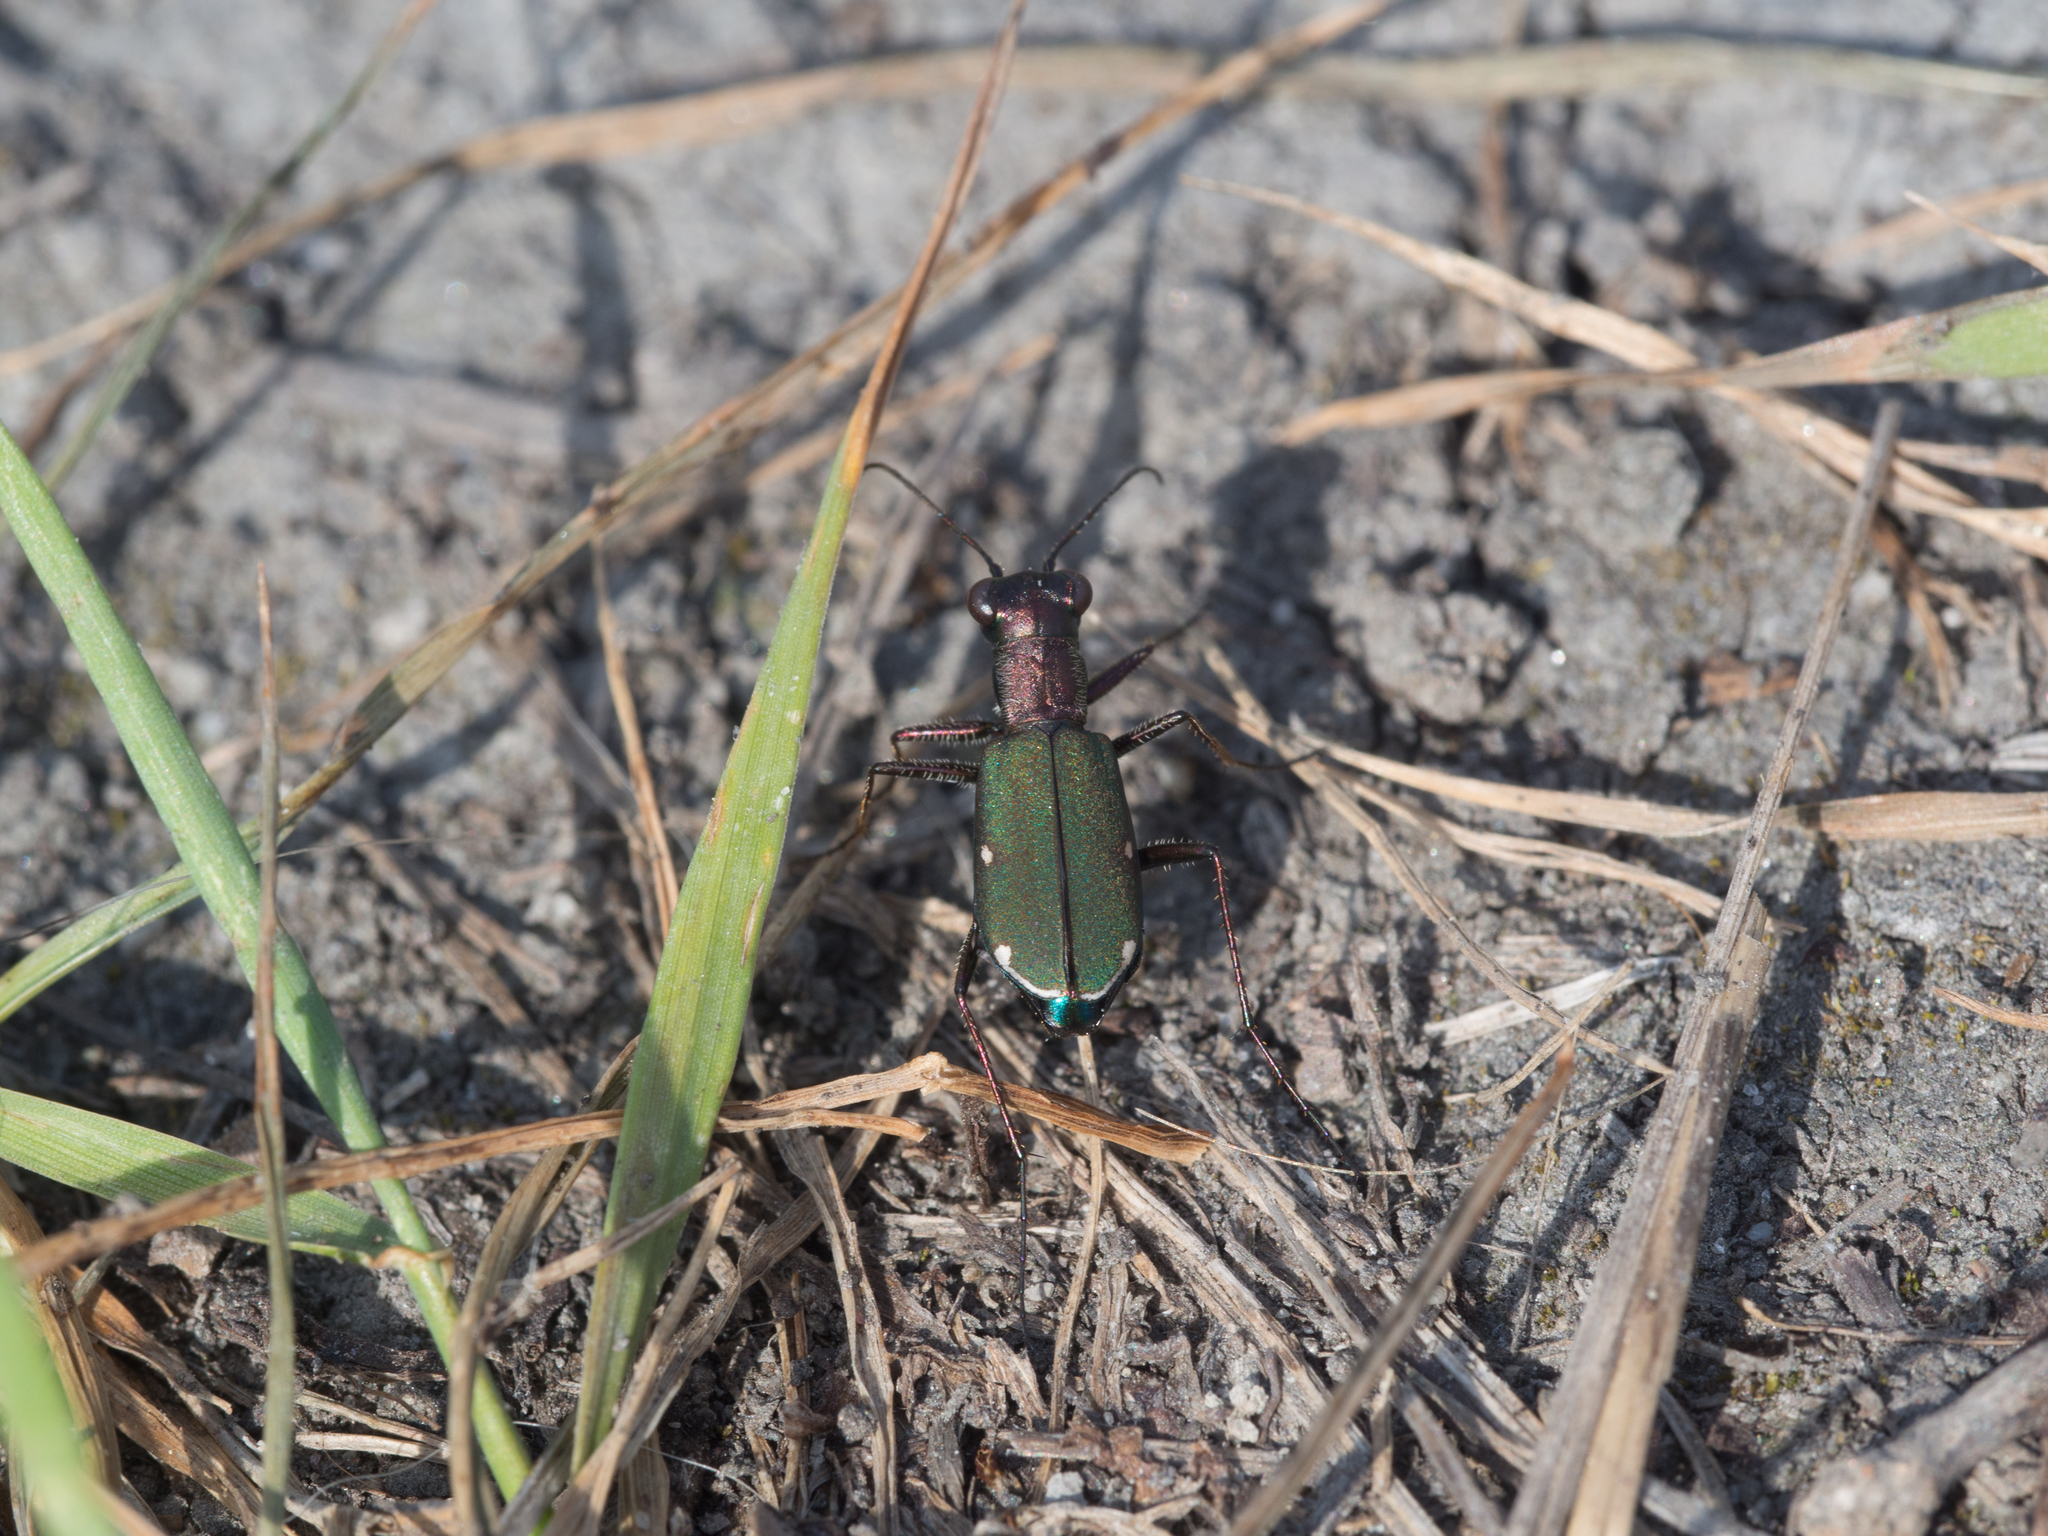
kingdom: Animalia
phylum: Arthropoda
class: Insecta
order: Coleoptera
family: Carabidae
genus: Cylindera
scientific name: Cylindera germanica
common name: Cliff tiger beetle
